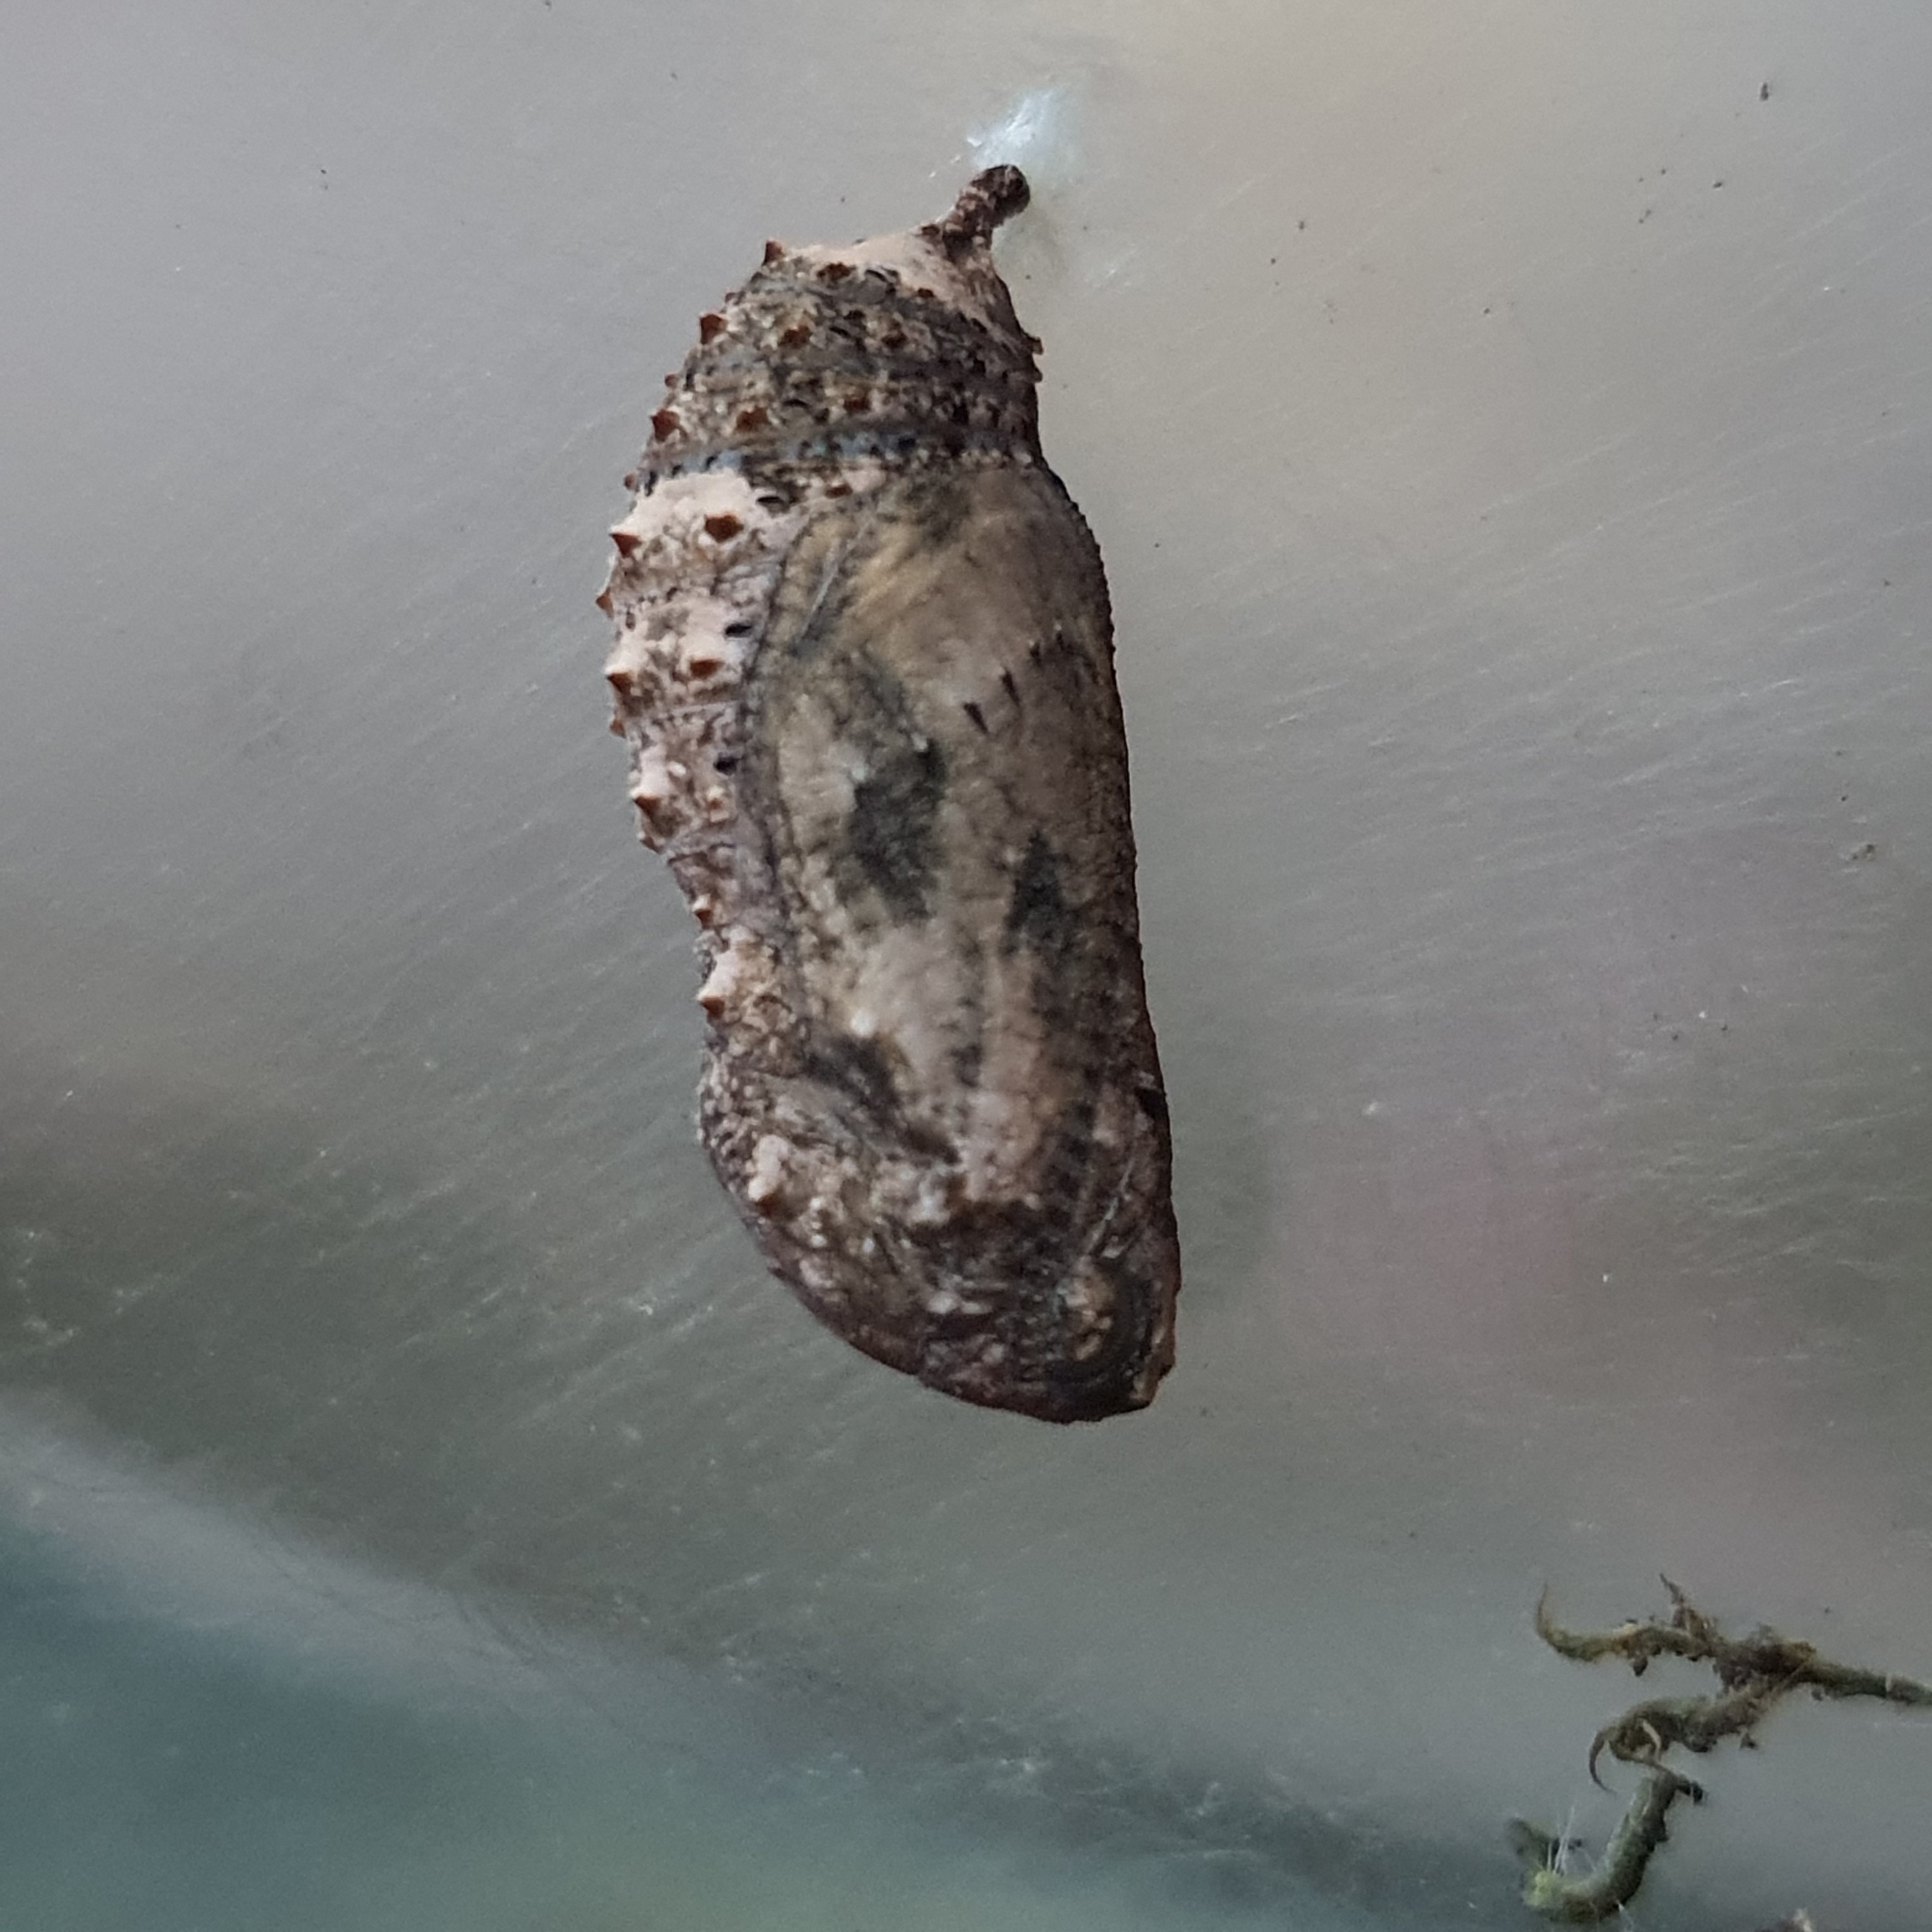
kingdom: Animalia
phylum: Arthropoda
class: Insecta
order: Lepidoptera
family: Nymphalidae
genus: Junonia
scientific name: Junonia villida
